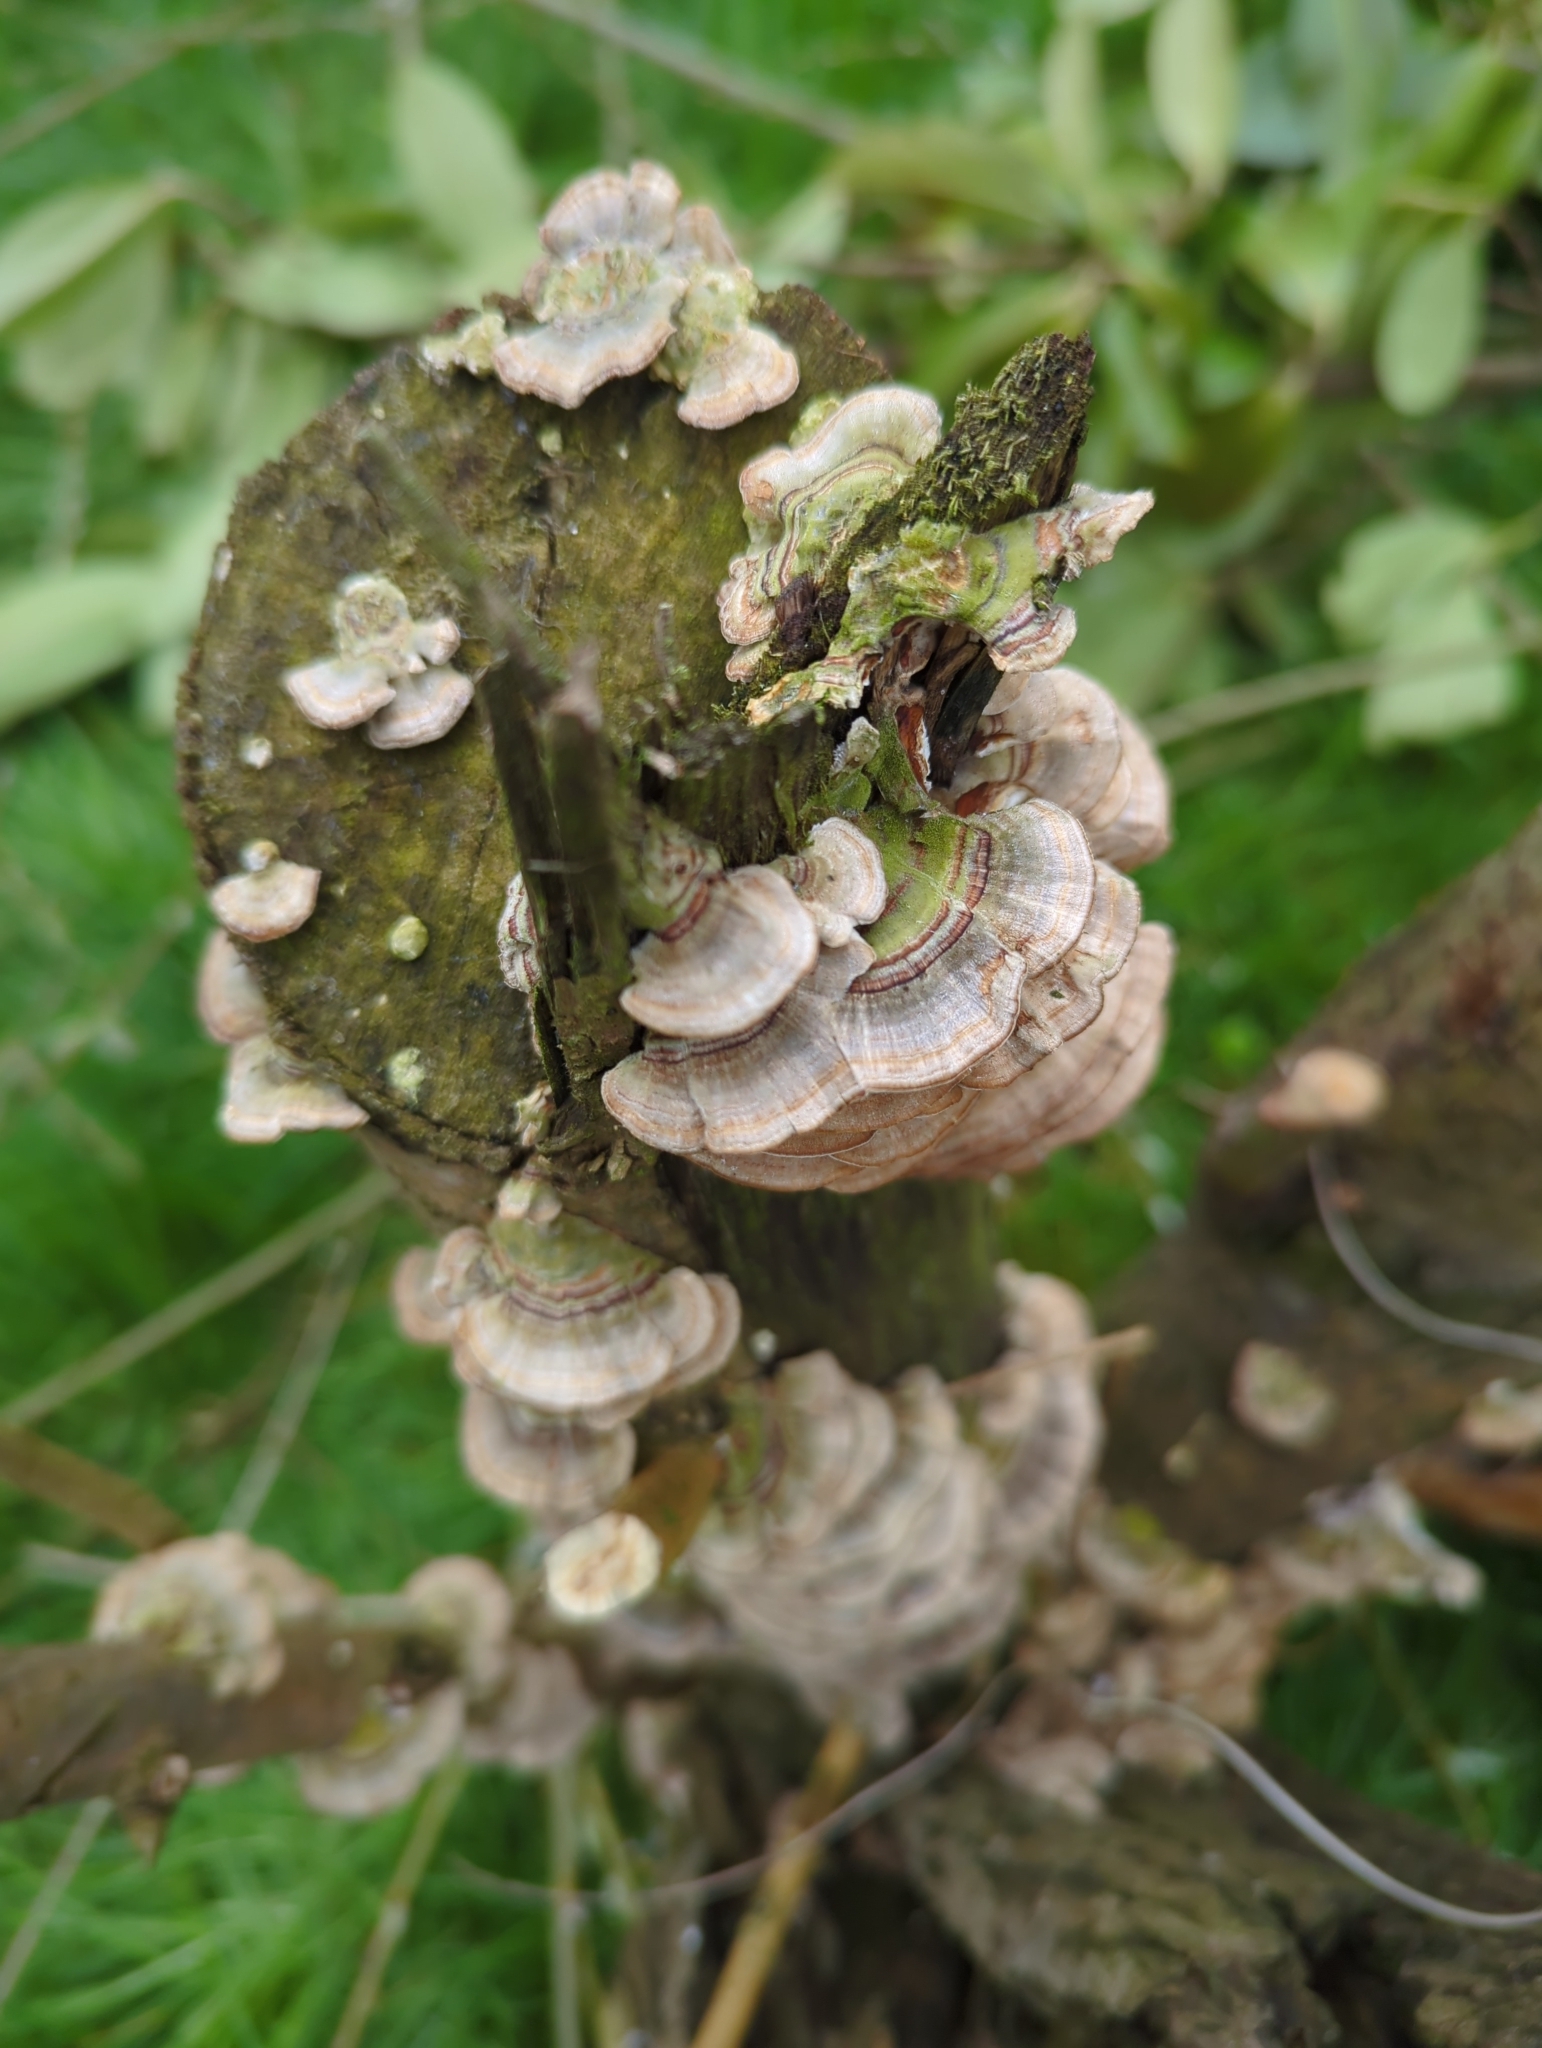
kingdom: Fungi
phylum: Basidiomycota
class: Agaricomycetes
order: Polyporales
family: Polyporaceae
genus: Trametes
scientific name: Trametes versicolor
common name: Turkeytail
